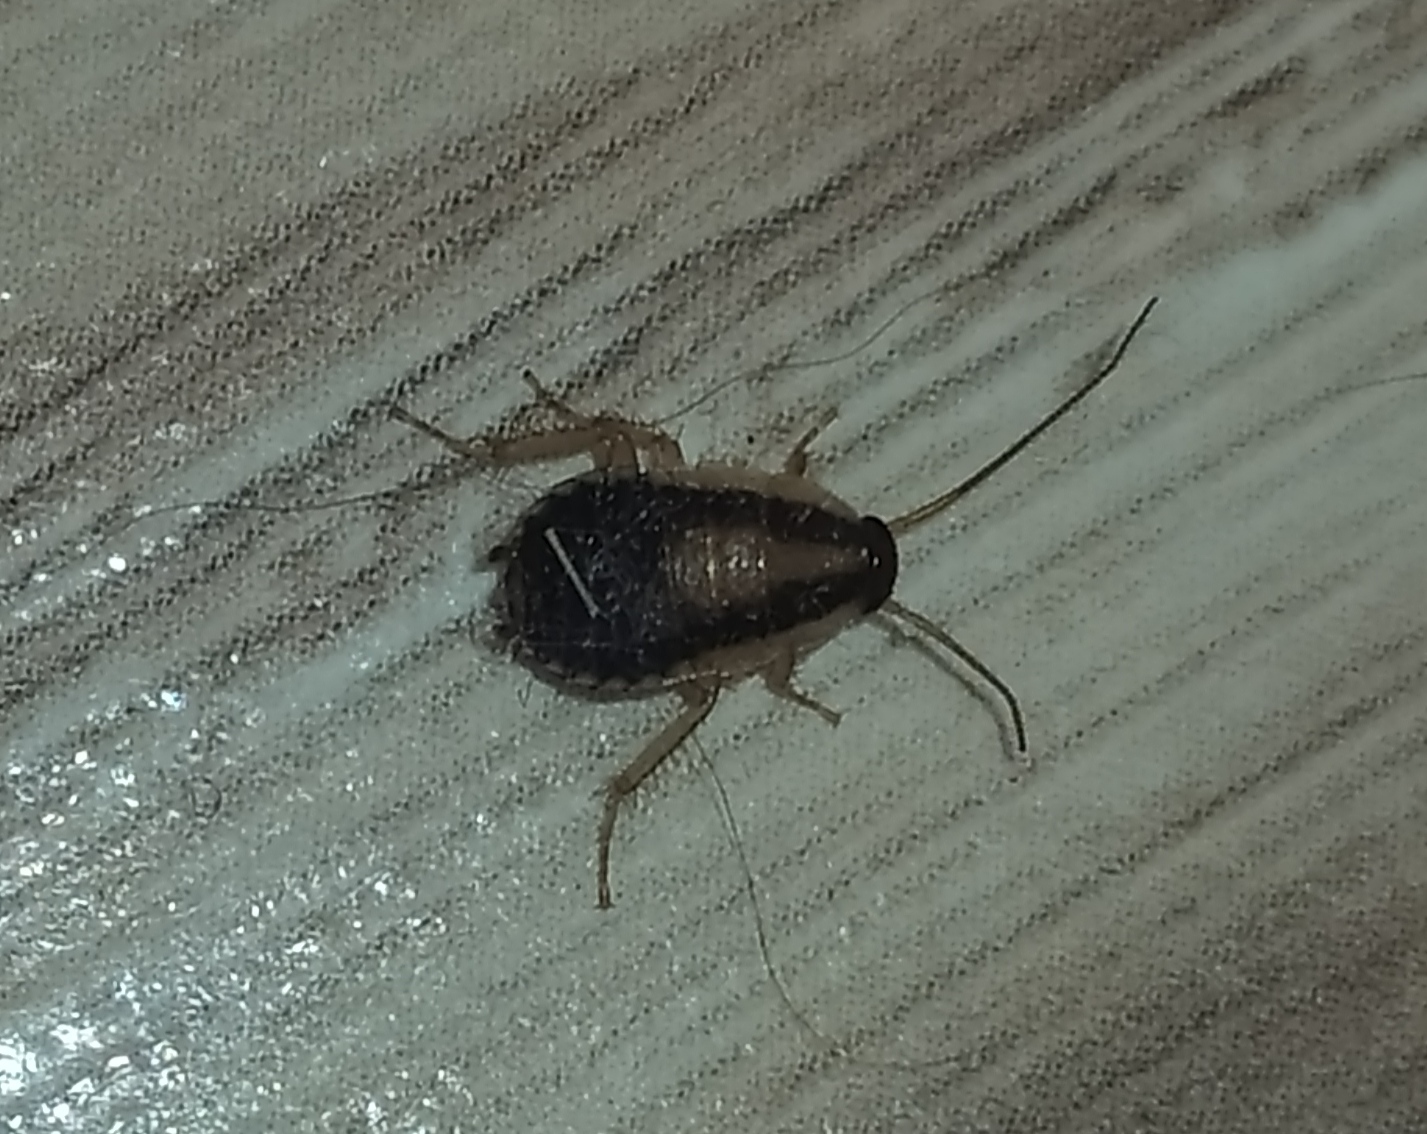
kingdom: Animalia
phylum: Arthropoda
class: Insecta
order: Blattodea
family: Ectobiidae
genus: Blattella
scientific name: Blattella germanica
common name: German cockroach
